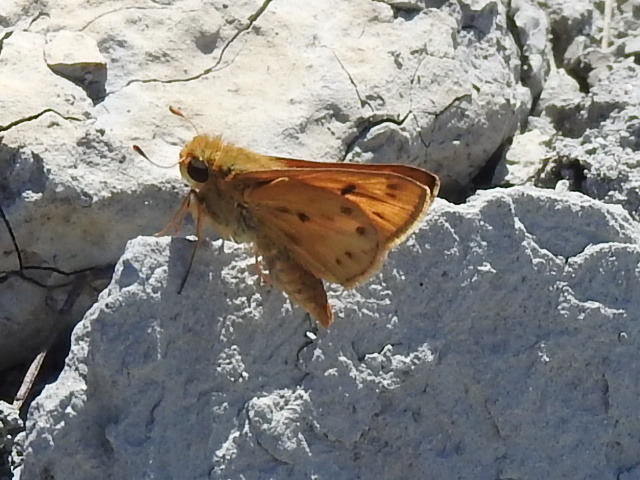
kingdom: Animalia
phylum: Arthropoda
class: Insecta
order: Lepidoptera
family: Hesperiidae
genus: Hylephila
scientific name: Hylephila phyleus
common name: Fiery skipper
